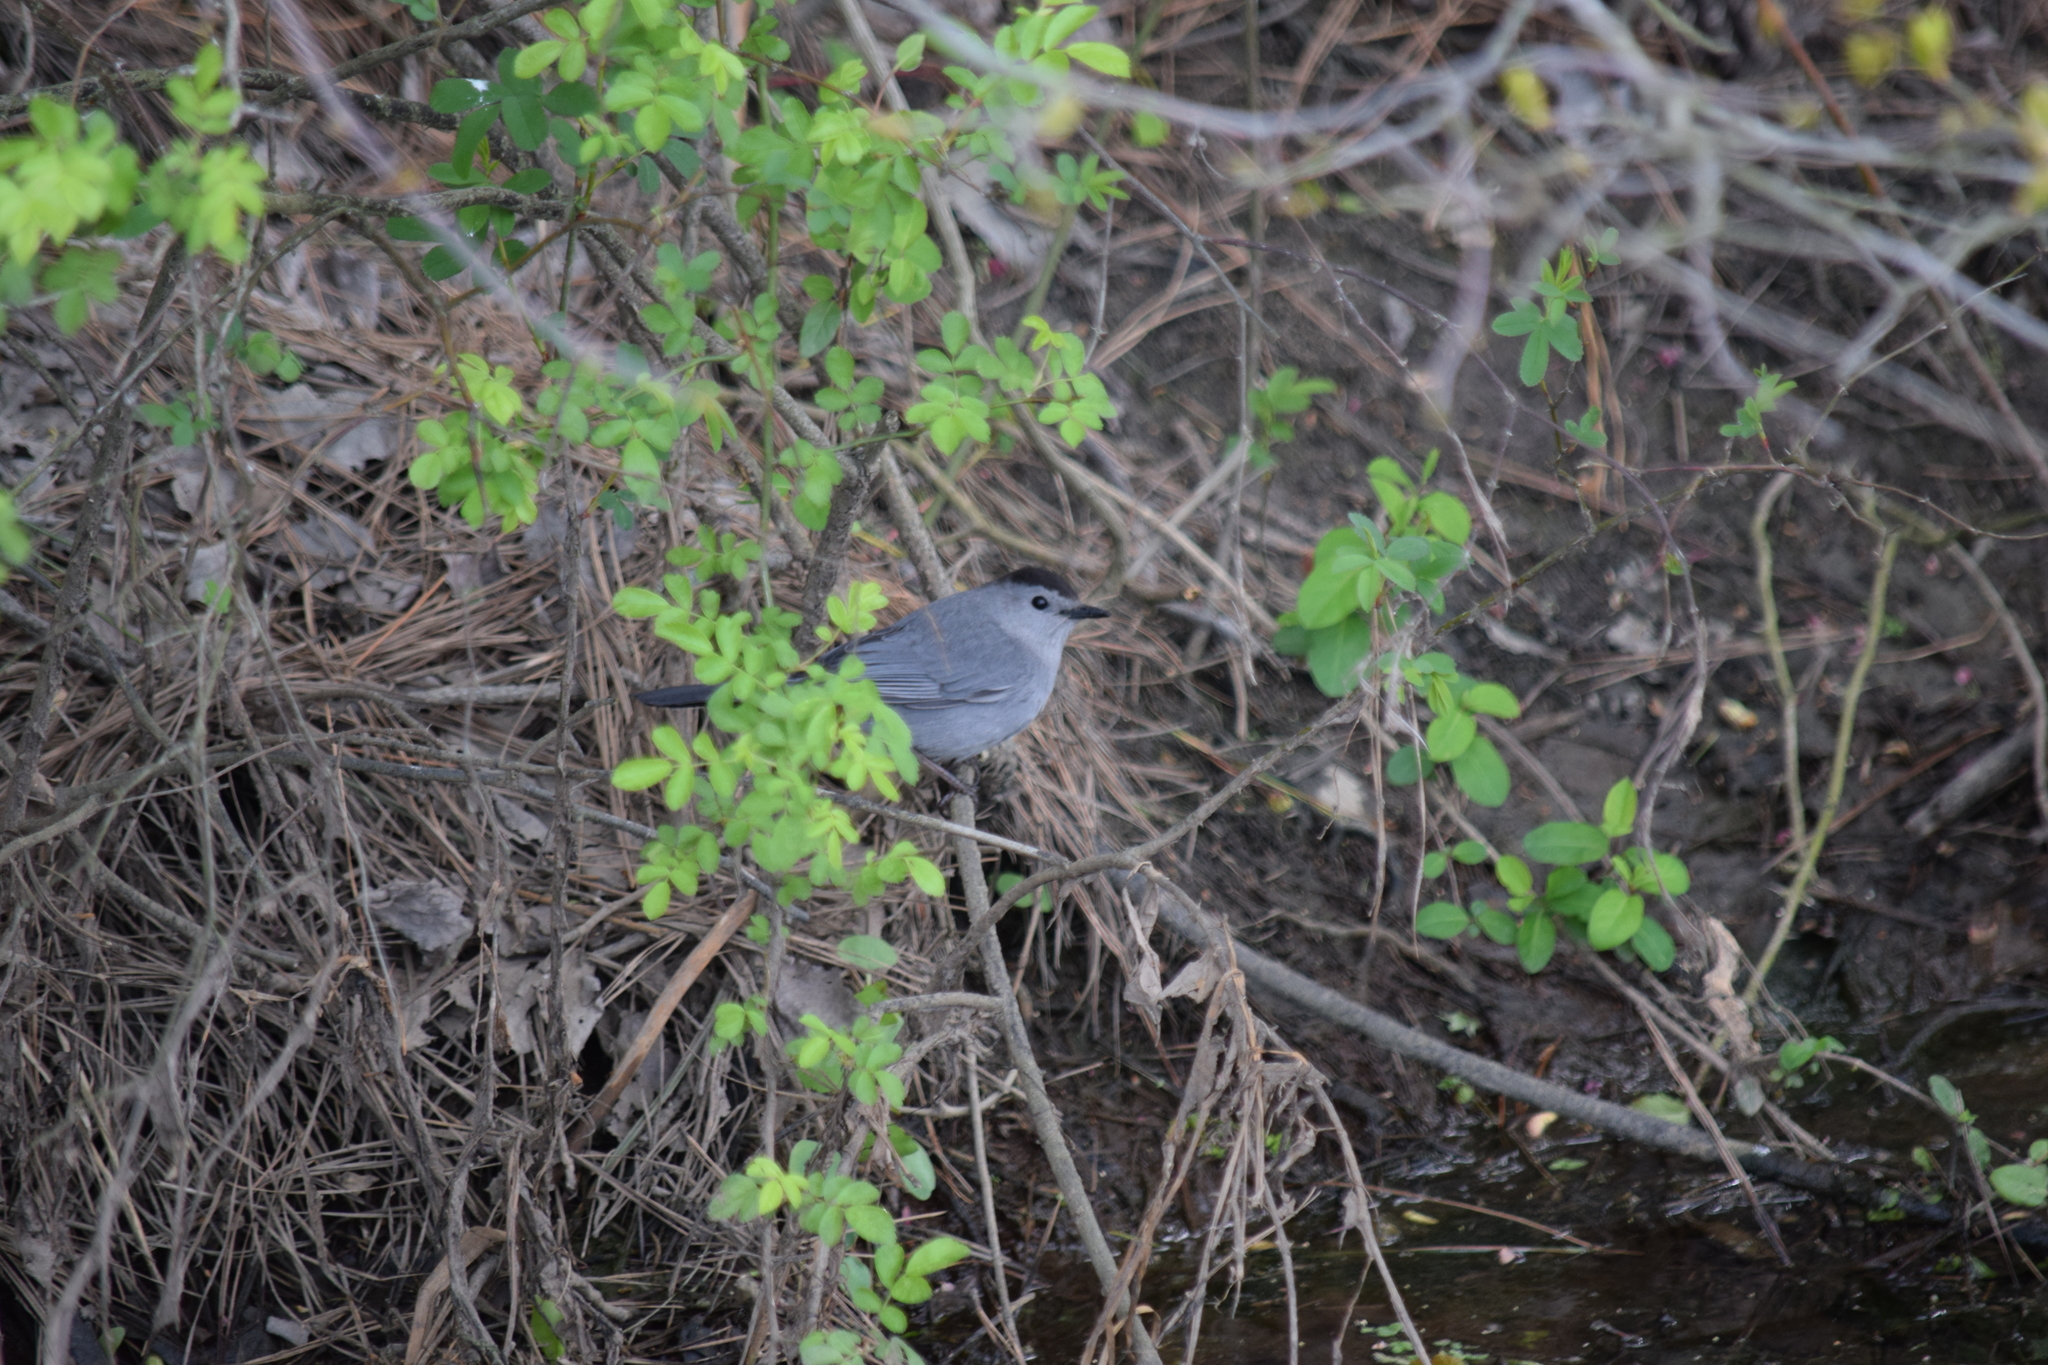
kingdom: Animalia
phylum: Chordata
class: Aves
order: Passeriformes
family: Mimidae
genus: Dumetella
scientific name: Dumetella carolinensis
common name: Gray catbird
